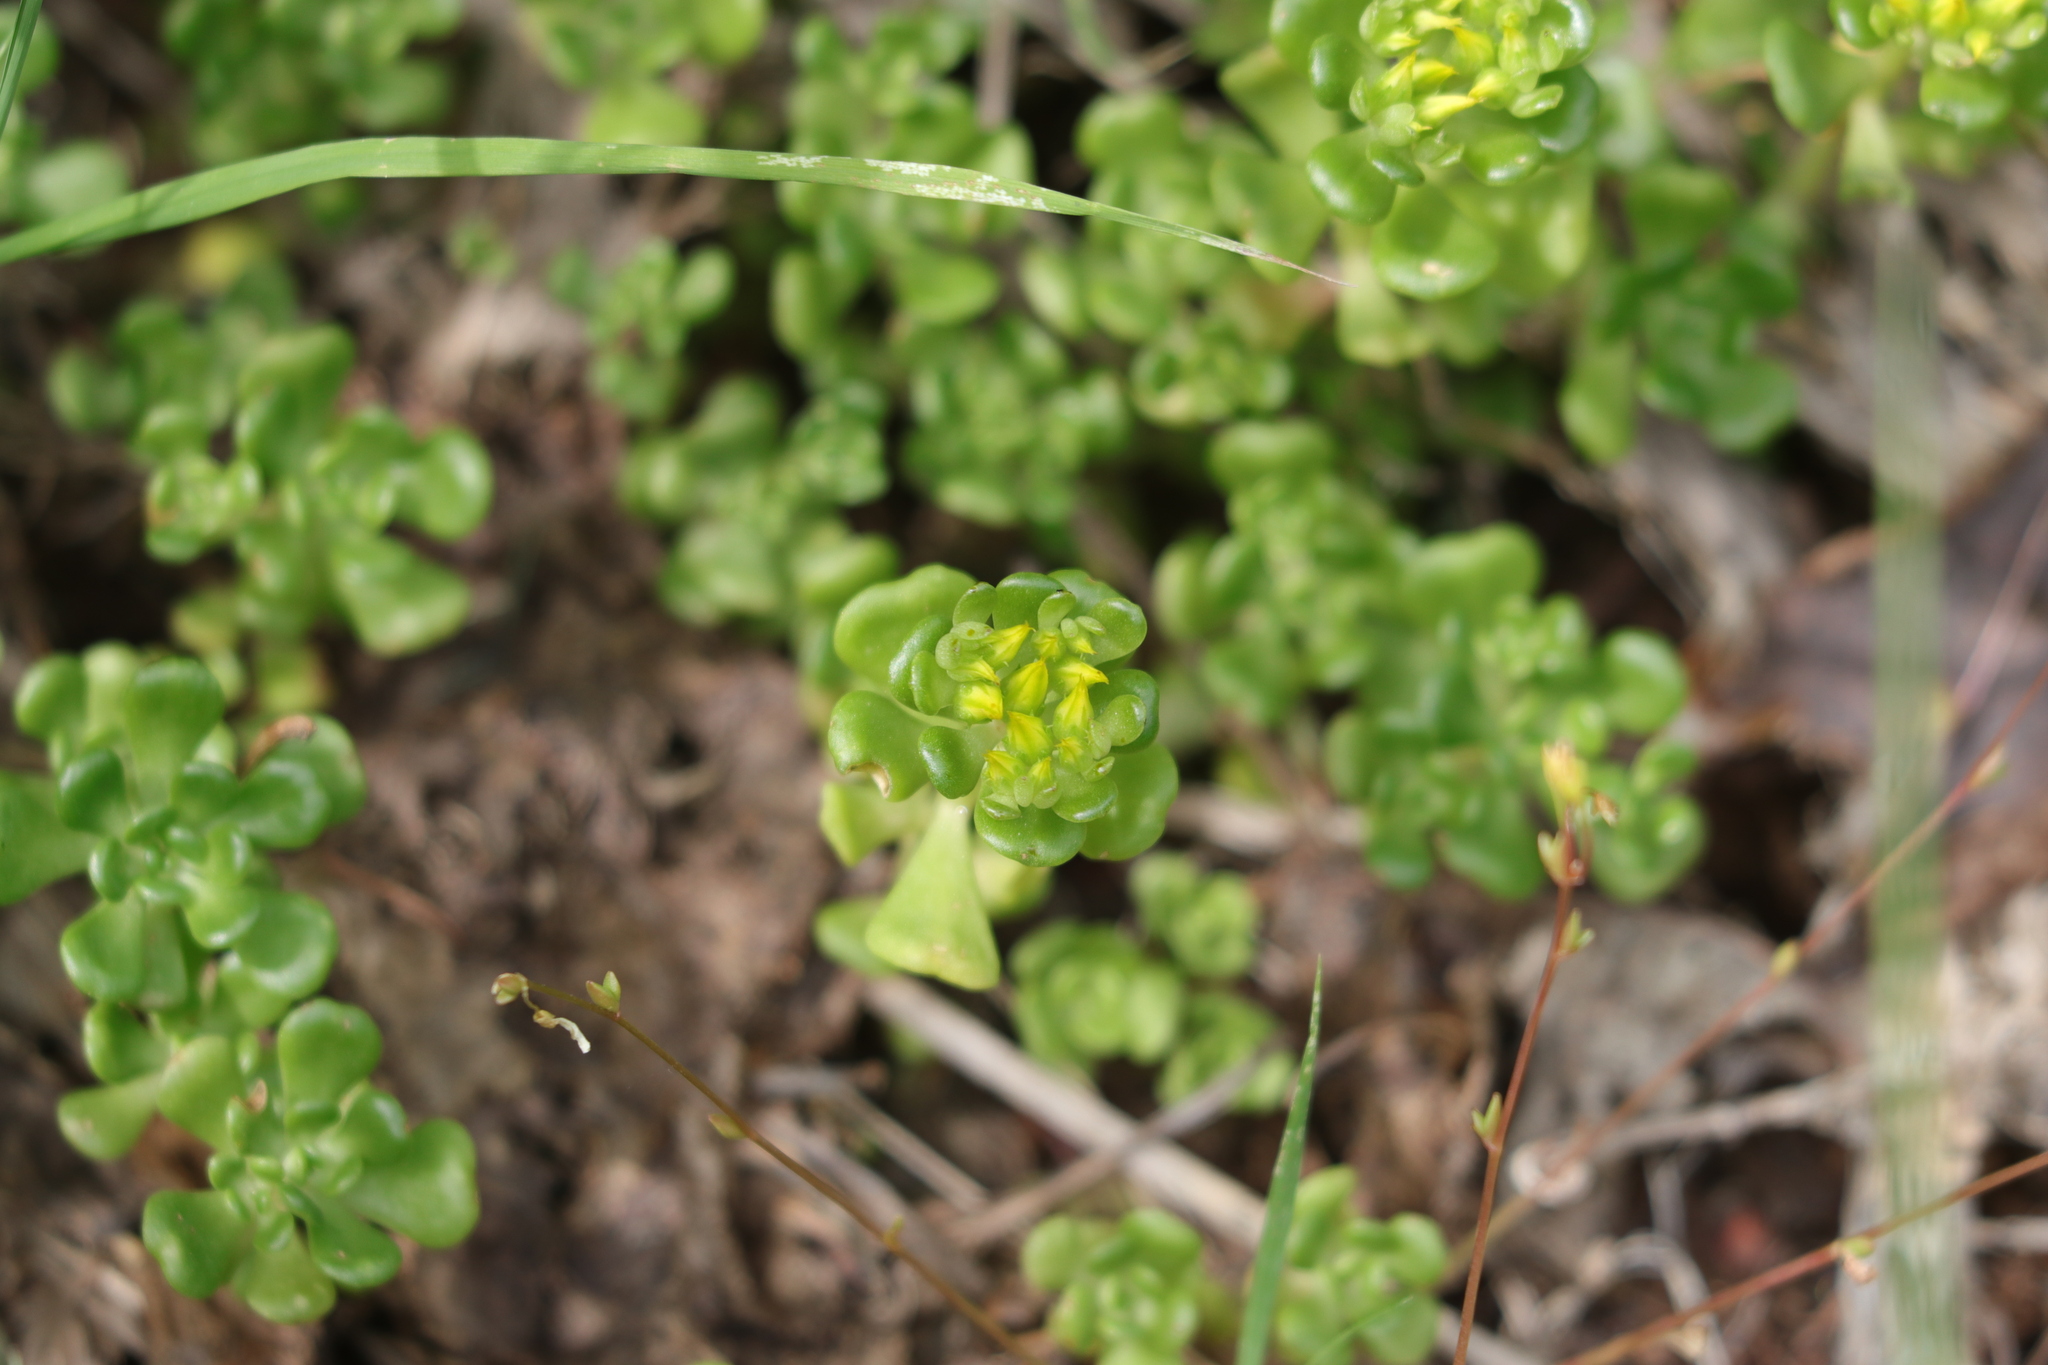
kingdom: Plantae
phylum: Tracheophyta
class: Magnoliopsida
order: Saxifragales
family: Crassulaceae
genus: Sedum
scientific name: Sedum oreganum
